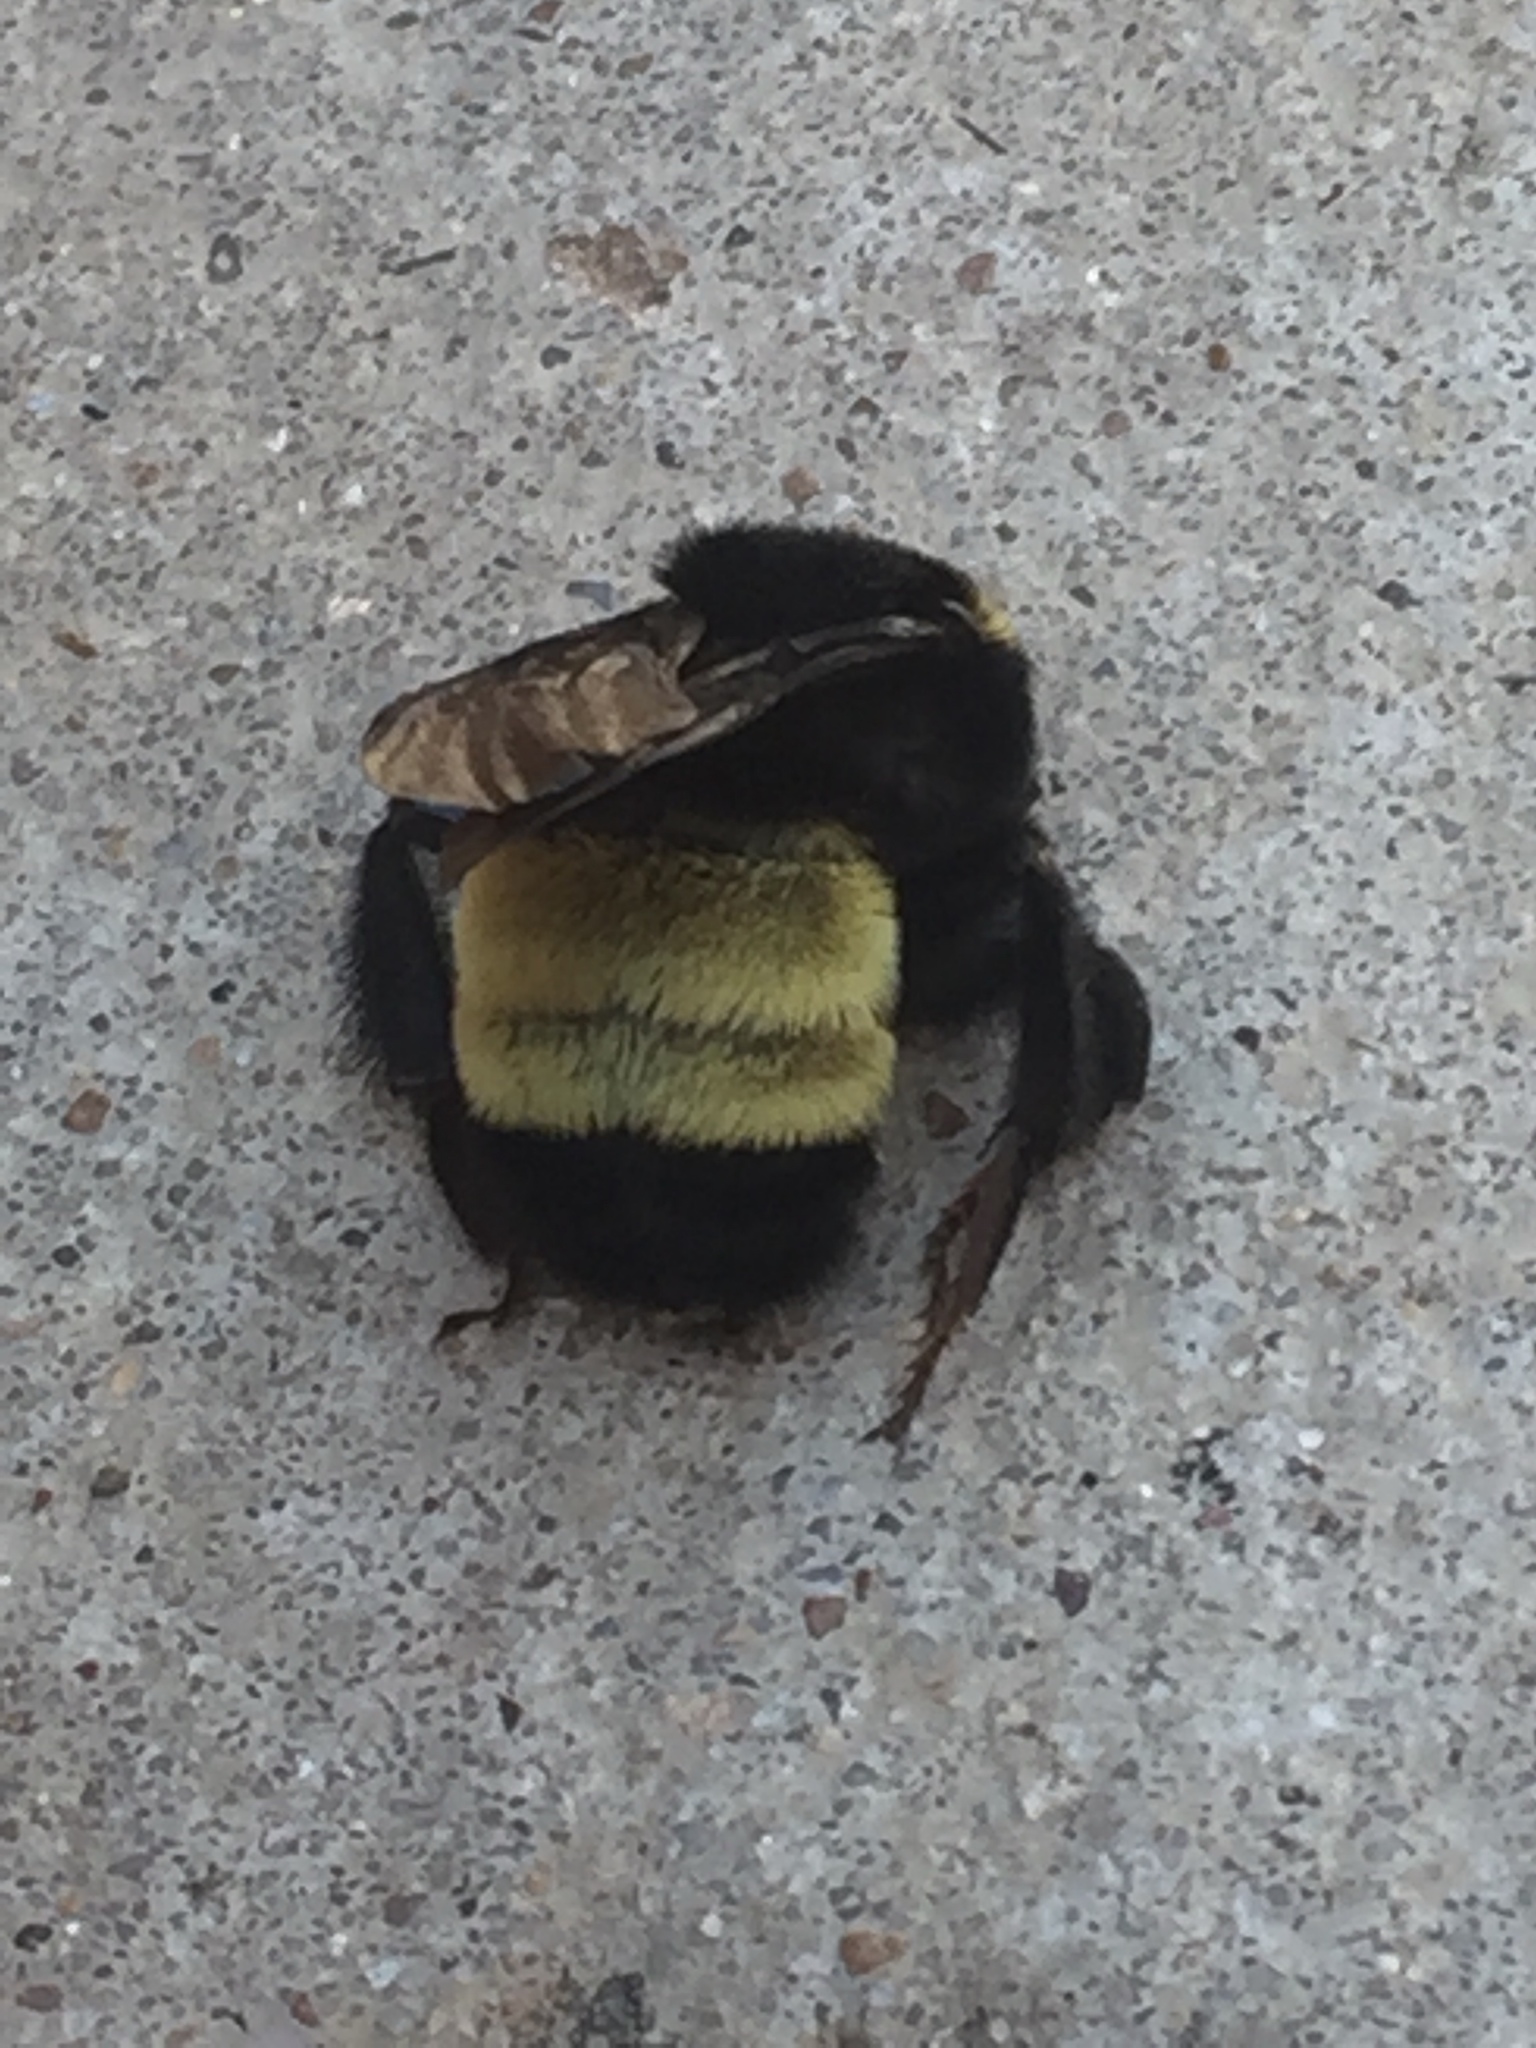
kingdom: Animalia
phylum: Arthropoda
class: Insecta
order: Hymenoptera
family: Apidae
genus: Bombus
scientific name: Bombus pensylvanicus
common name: Bumble bee
